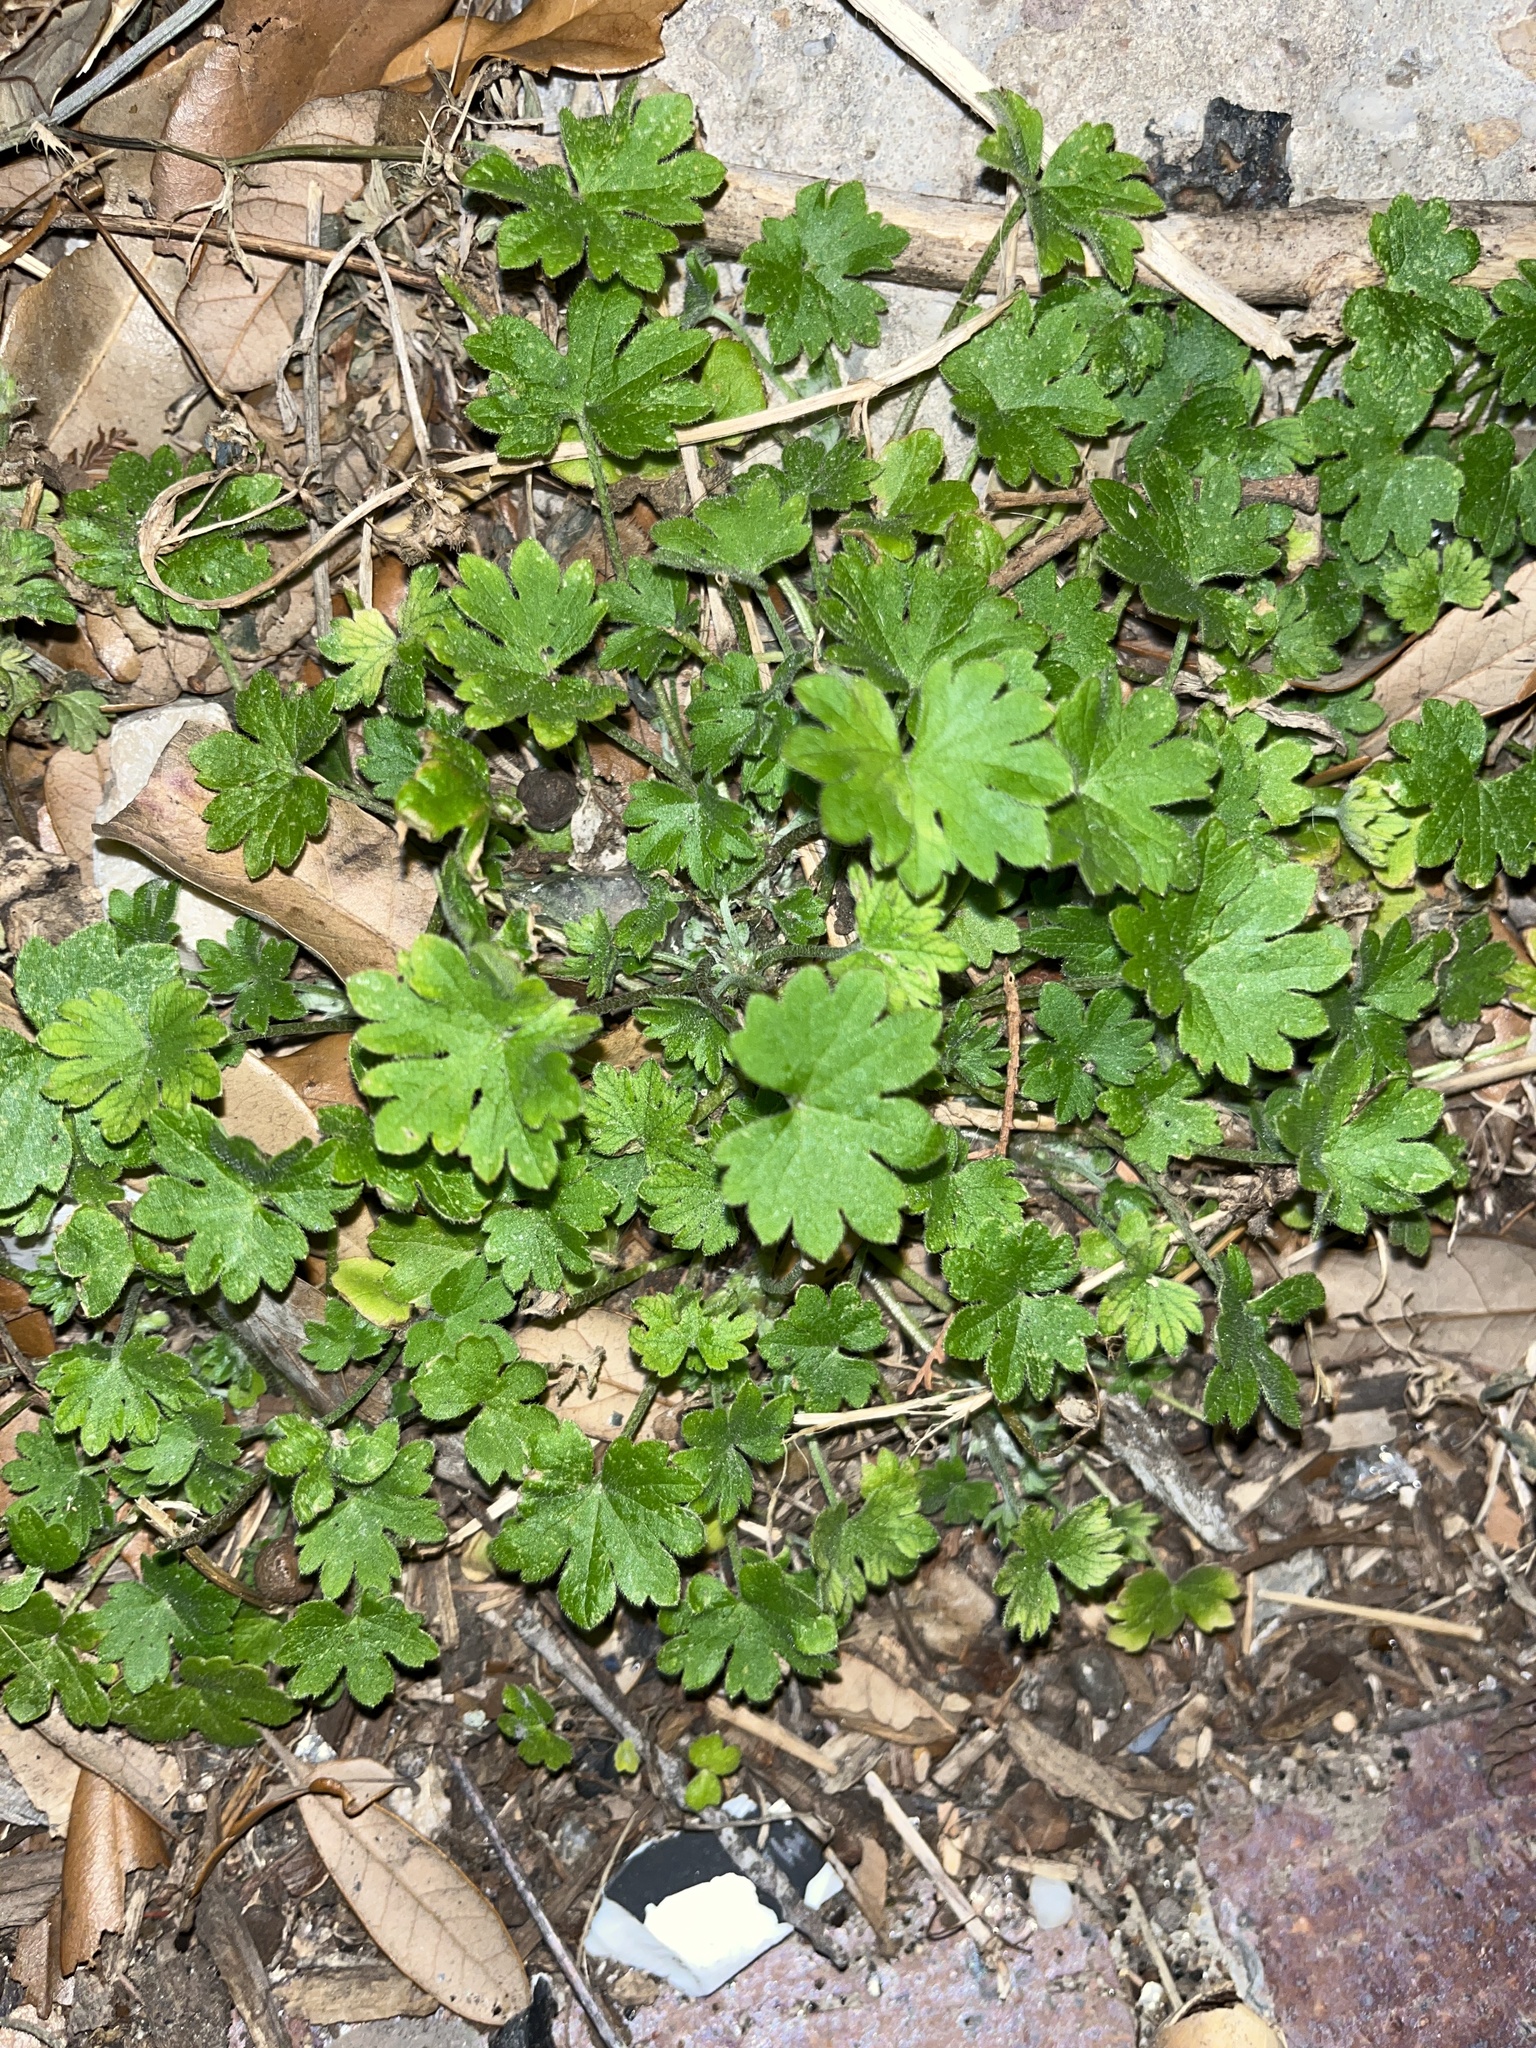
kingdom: Plantae
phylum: Tracheophyta
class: Magnoliopsida
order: Apiales
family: Apiaceae
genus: Bowlesia
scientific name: Bowlesia incana
